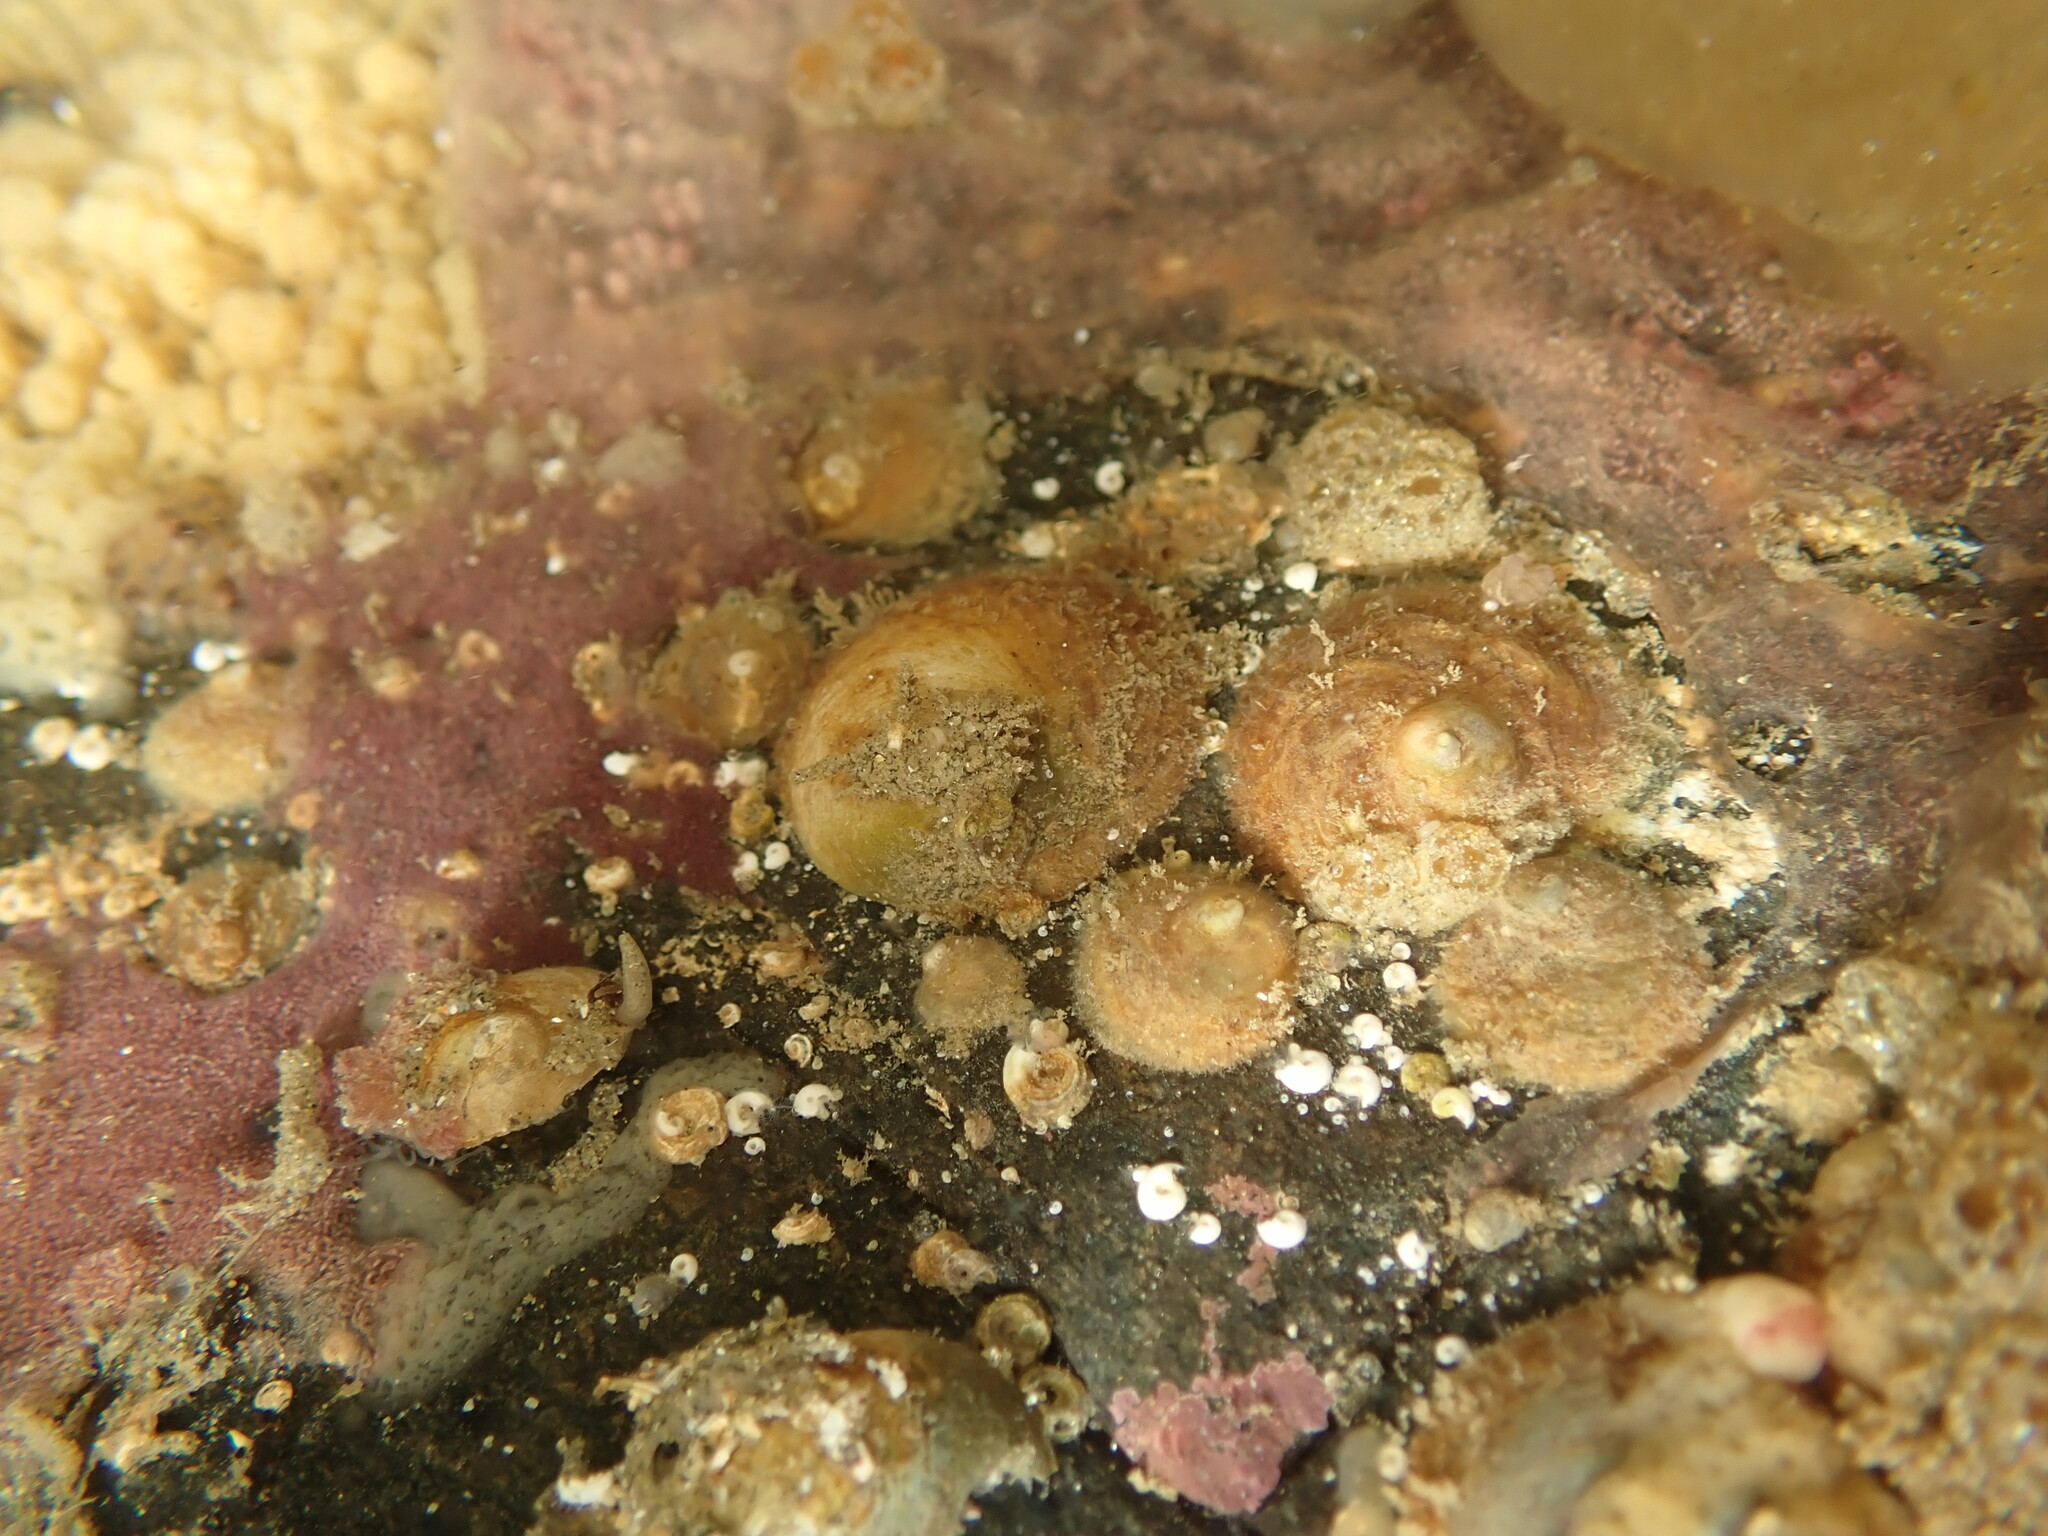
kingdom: Animalia
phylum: Mollusca
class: Gastropoda
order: Littorinimorpha
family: Calyptraeidae
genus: Sigapatella
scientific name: Sigapatella novaezelandiae
